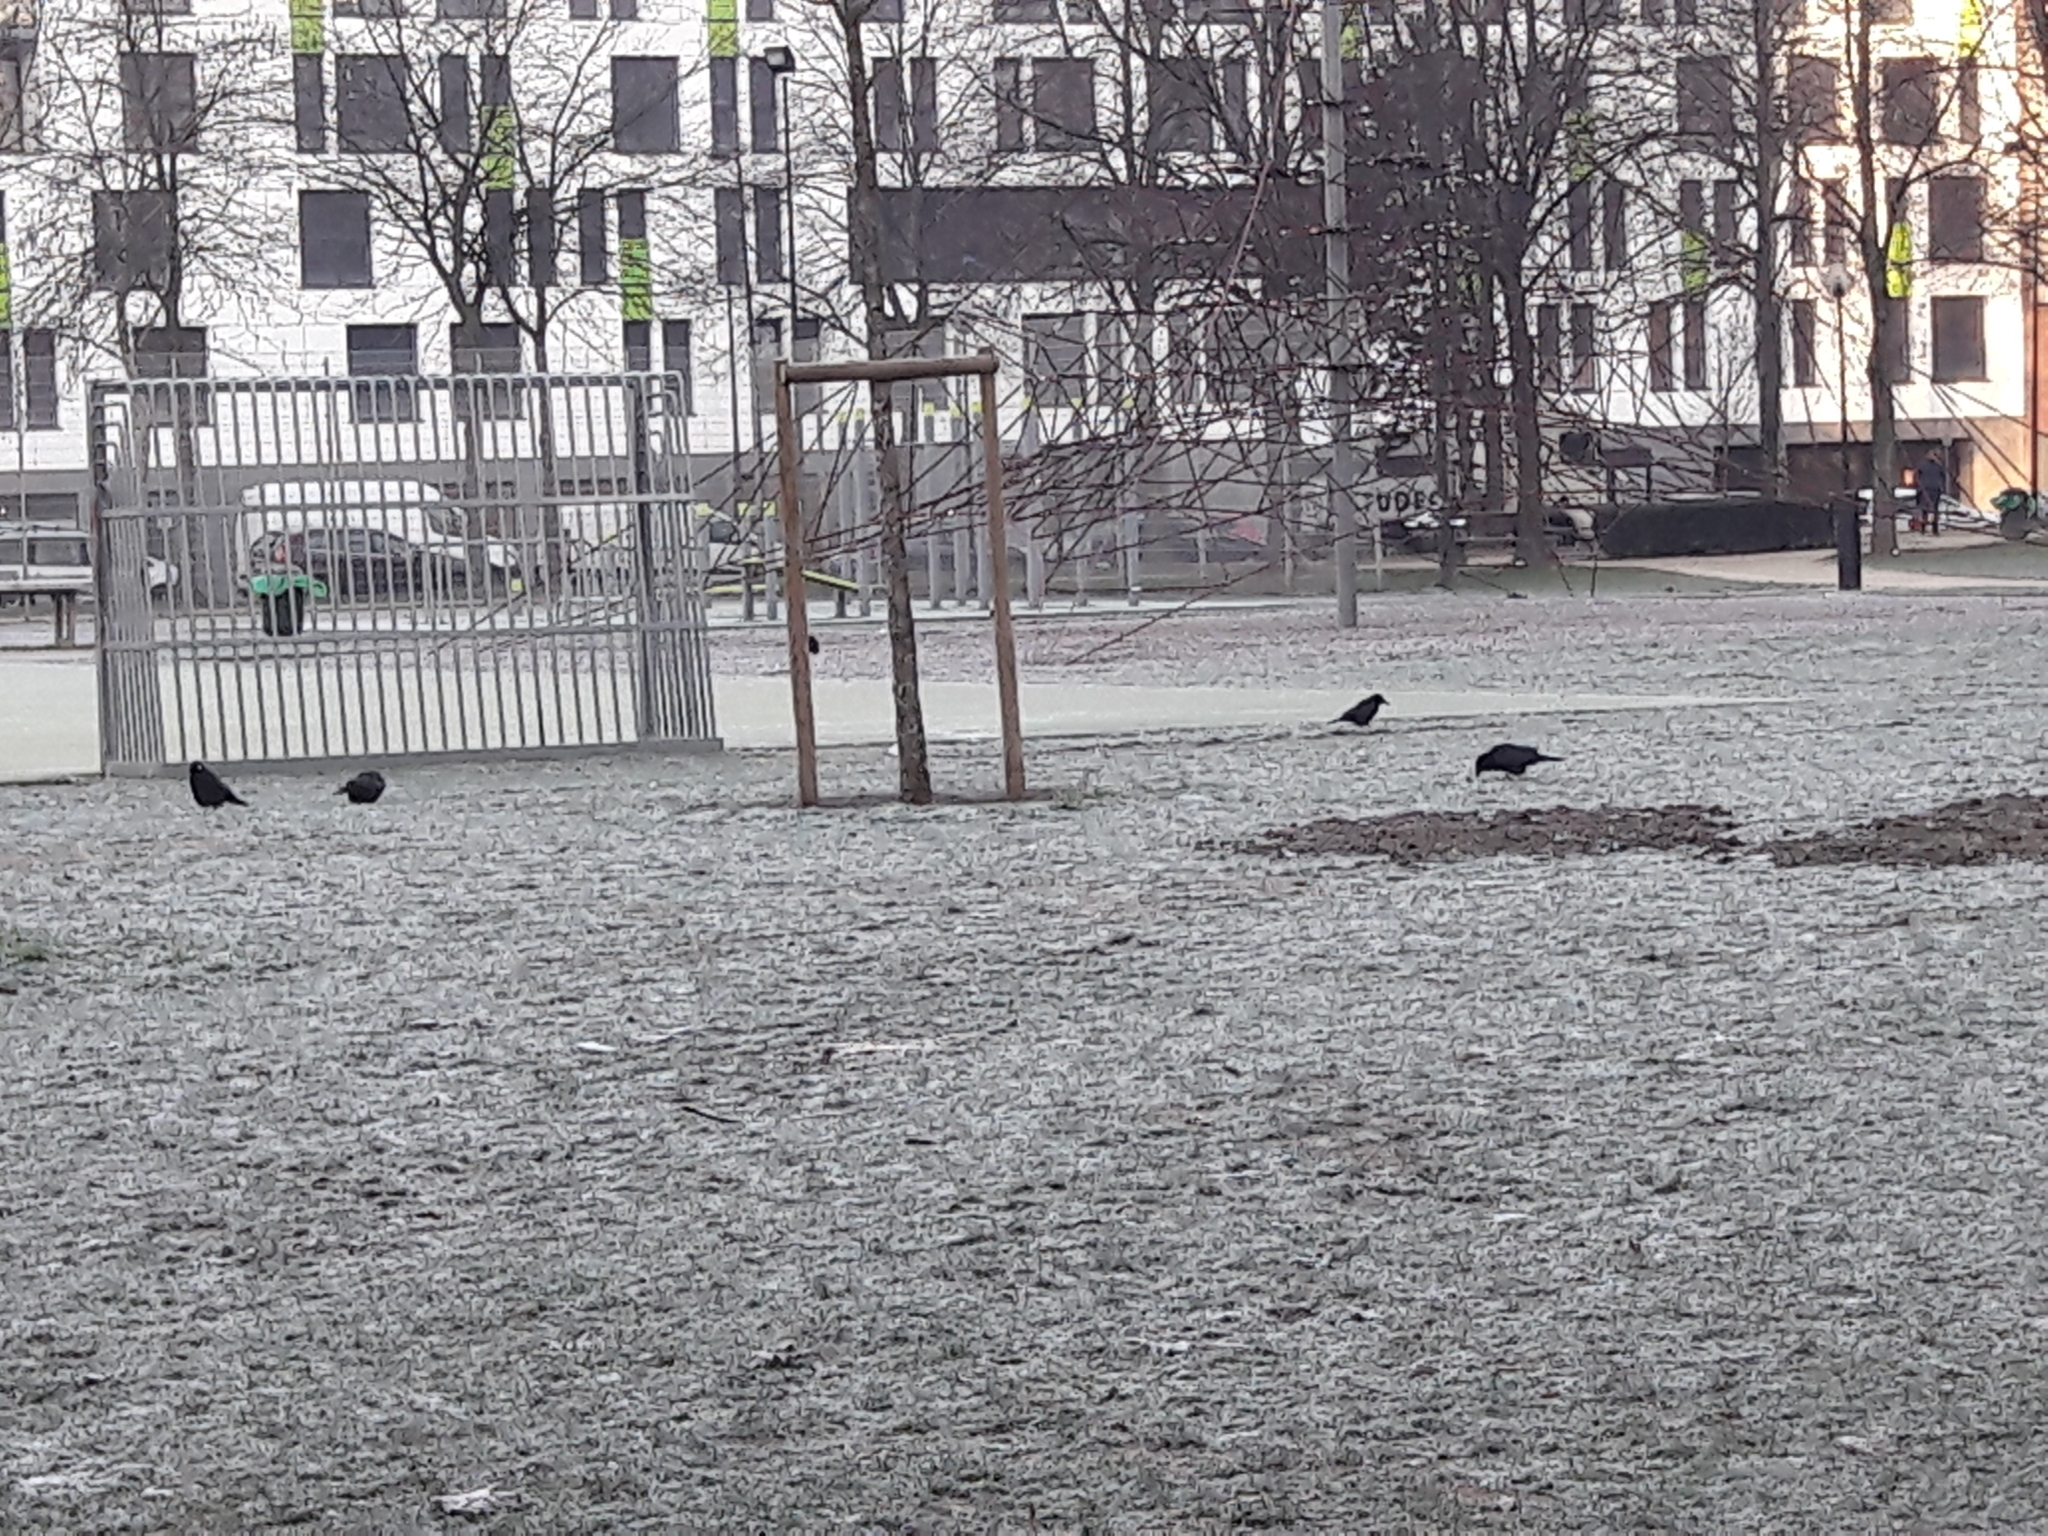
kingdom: Animalia
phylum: Chordata
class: Aves
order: Passeriformes
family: Corvidae
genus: Corvus
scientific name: Corvus corone
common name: Carrion crow
